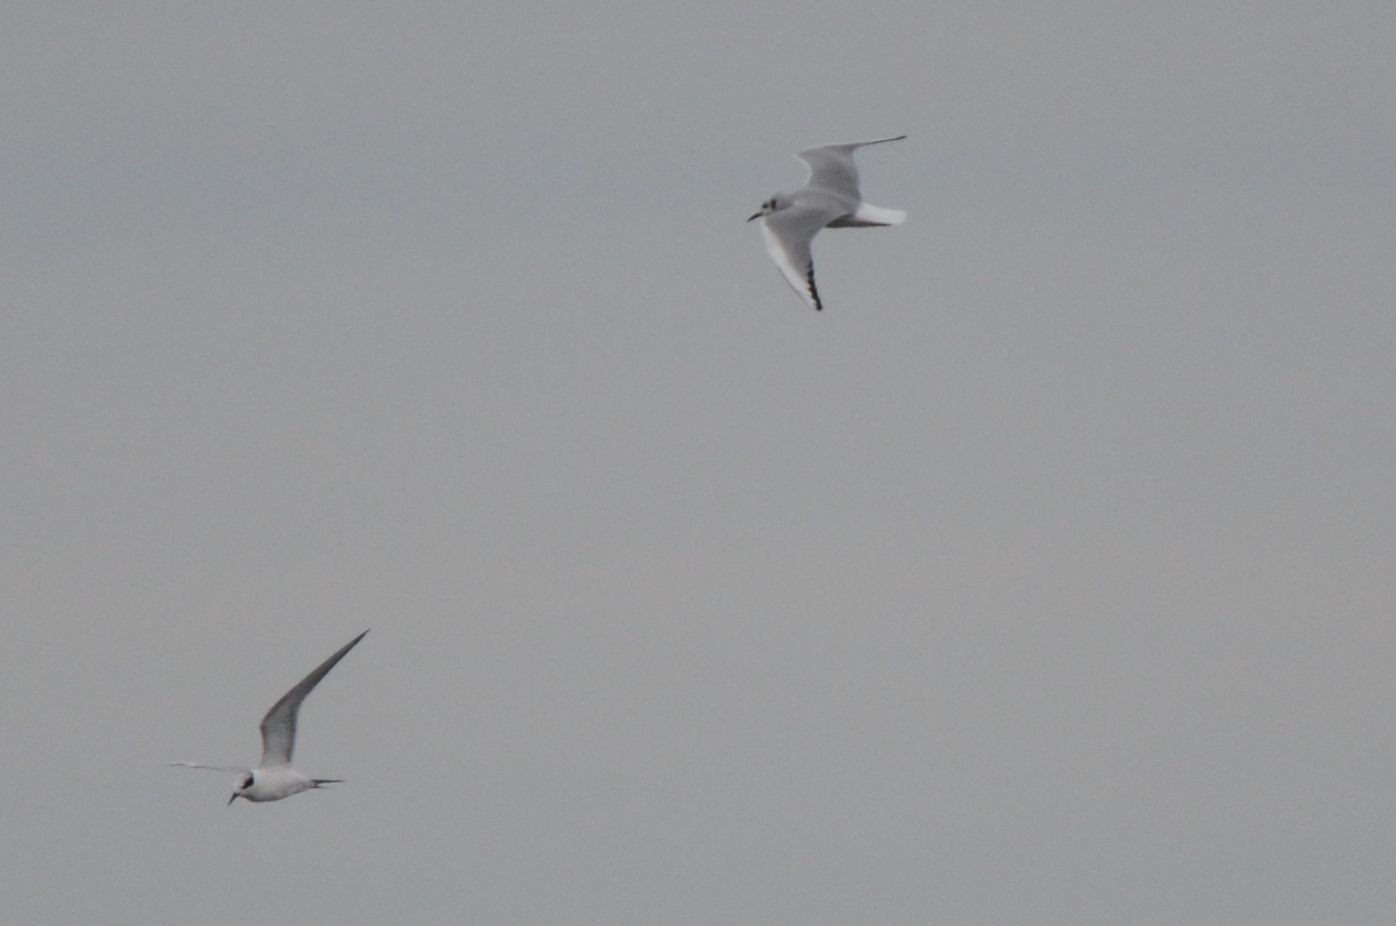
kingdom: Animalia
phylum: Chordata
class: Aves
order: Charadriiformes
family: Laridae
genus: Sterna
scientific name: Sterna forsteri
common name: Forster's tern
